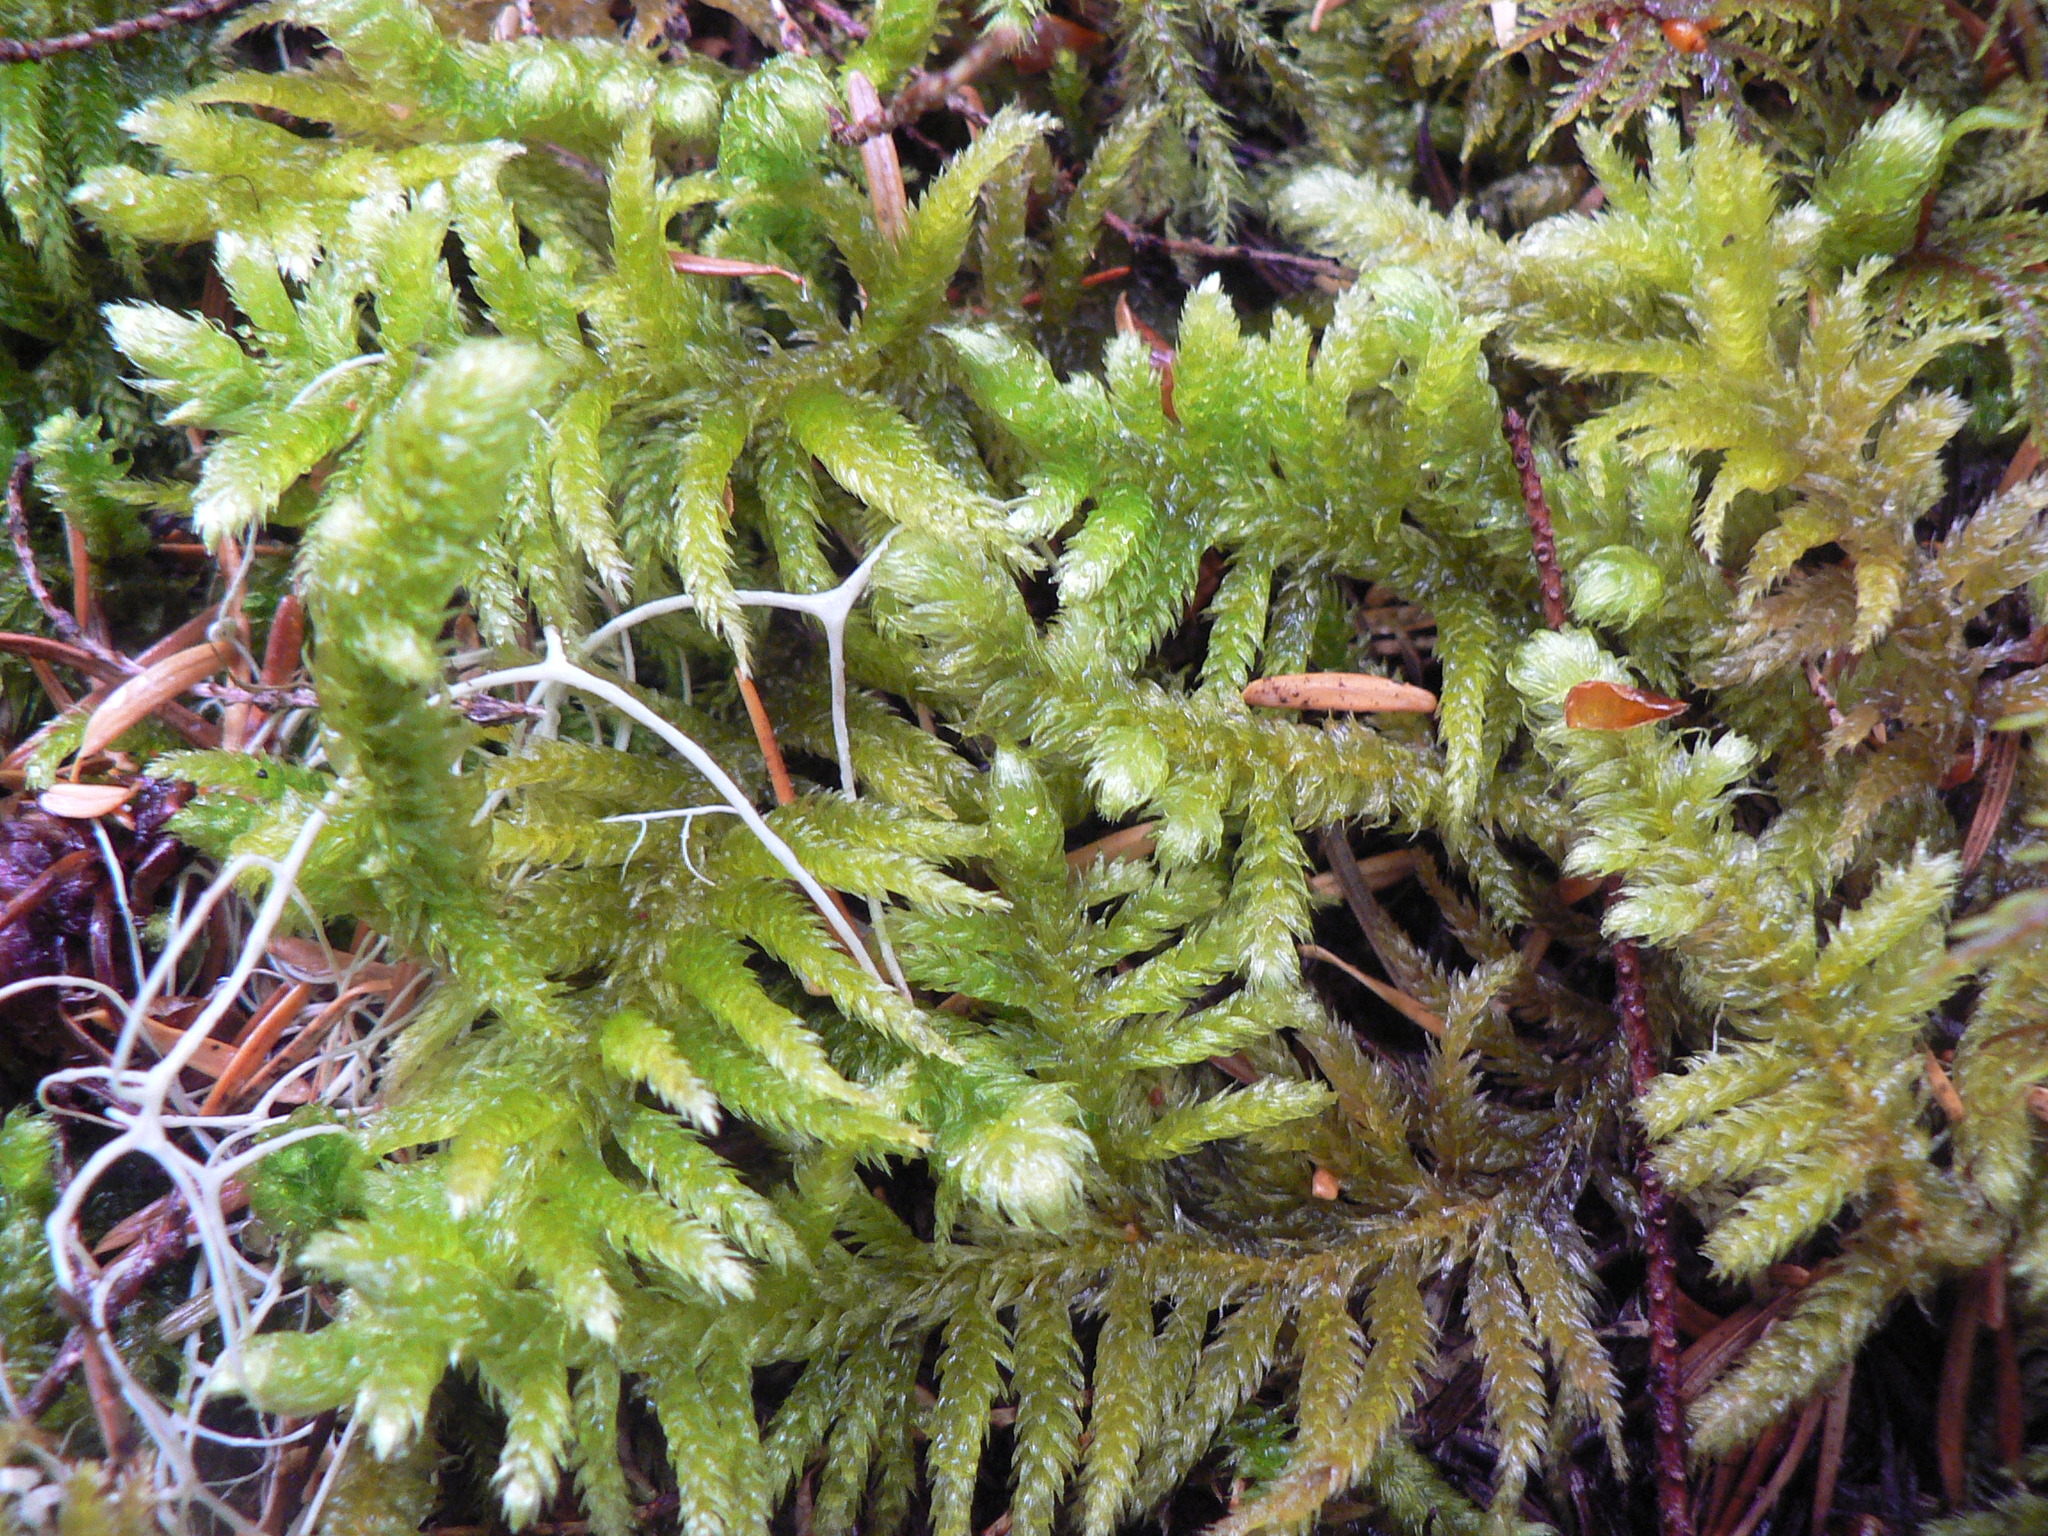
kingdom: Plantae
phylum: Bryophyta
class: Bryopsida
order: Hypnales
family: Brachytheciaceae
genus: Homalothecium
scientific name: Homalothecium megaptilum
